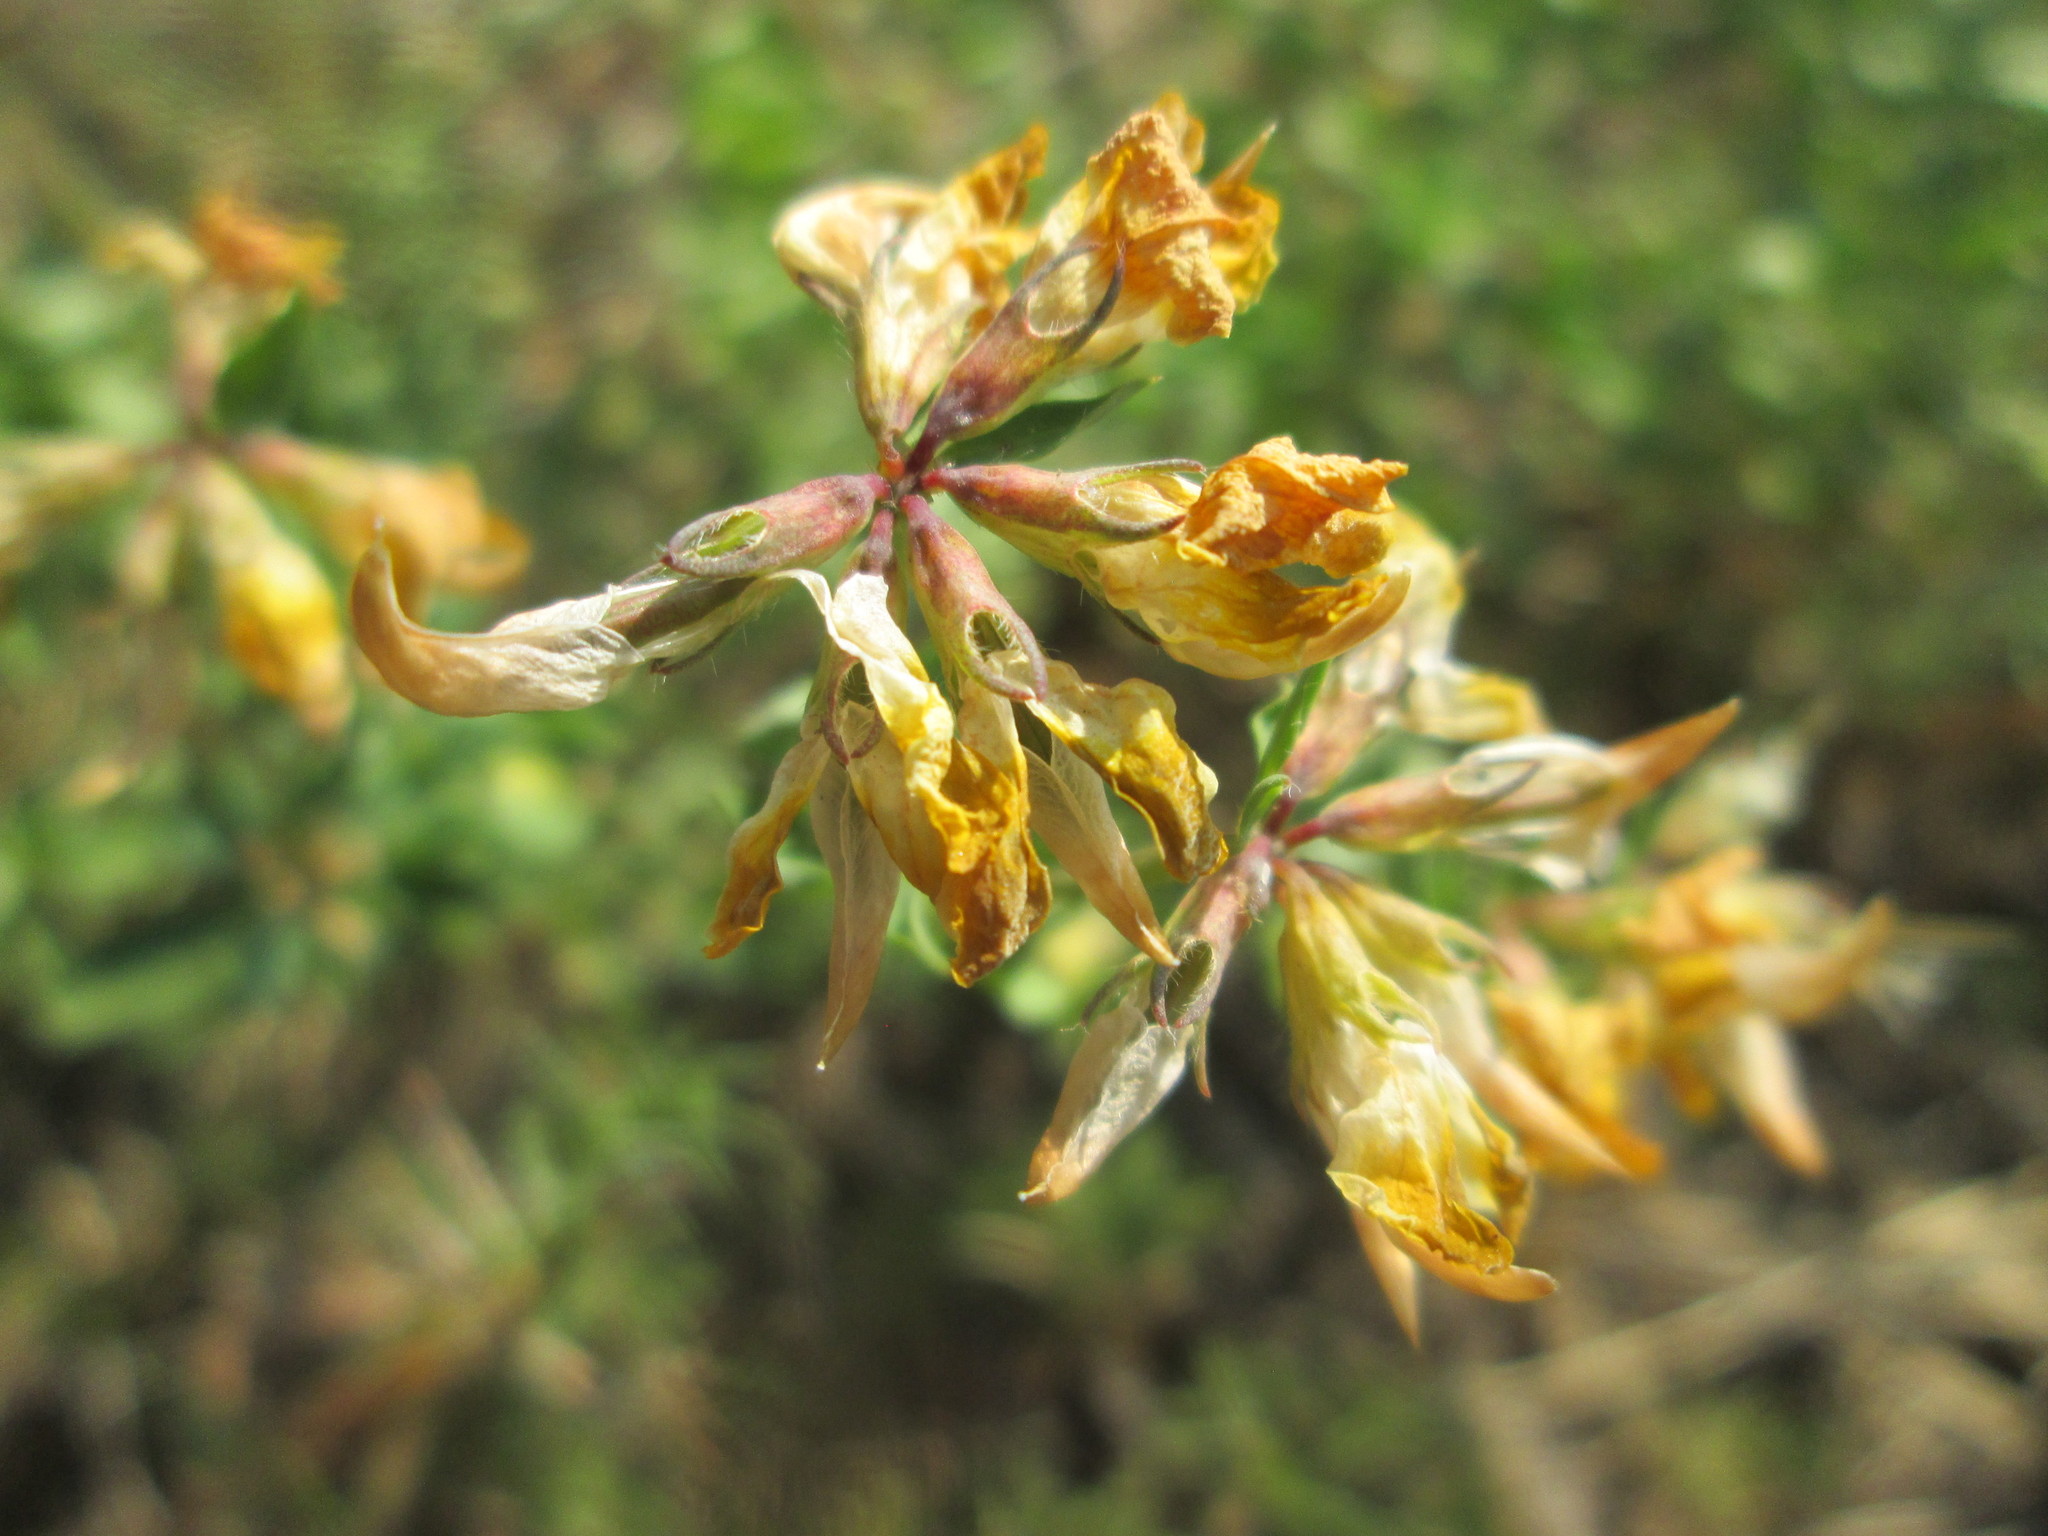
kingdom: Plantae
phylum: Tracheophyta
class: Magnoliopsida
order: Fabales
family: Fabaceae
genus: Lotus
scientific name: Lotus corniculatus
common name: Common bird's-foot-trefoil
